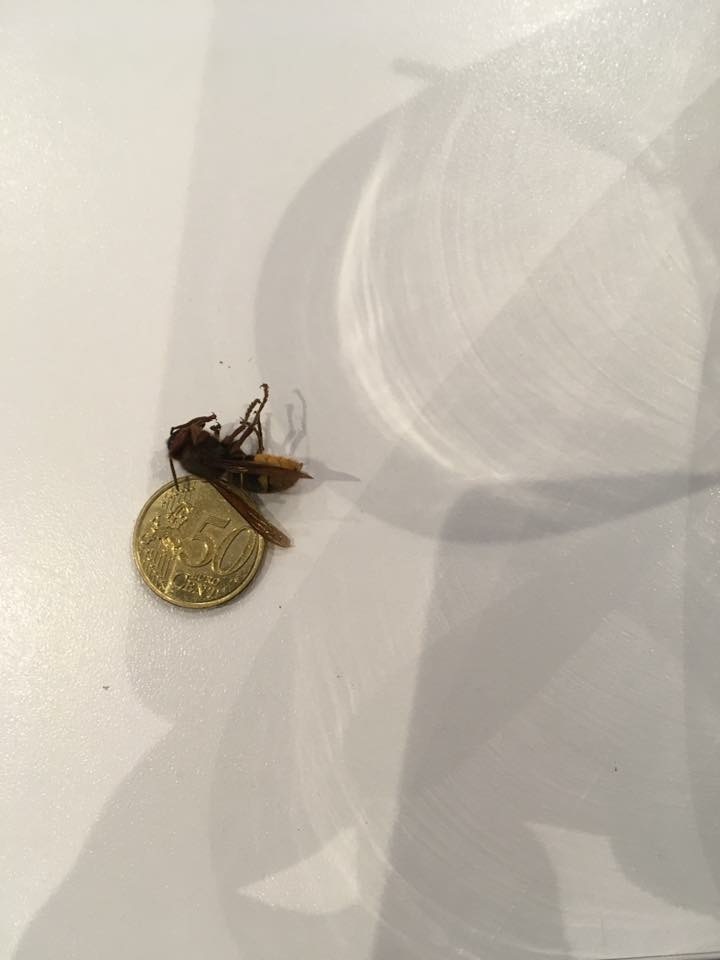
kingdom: Animalia
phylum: Arthropoda
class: Insecta
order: Hymenoptera
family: Vespidae
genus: Vespa
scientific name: Vespa crabro
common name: Hornet
